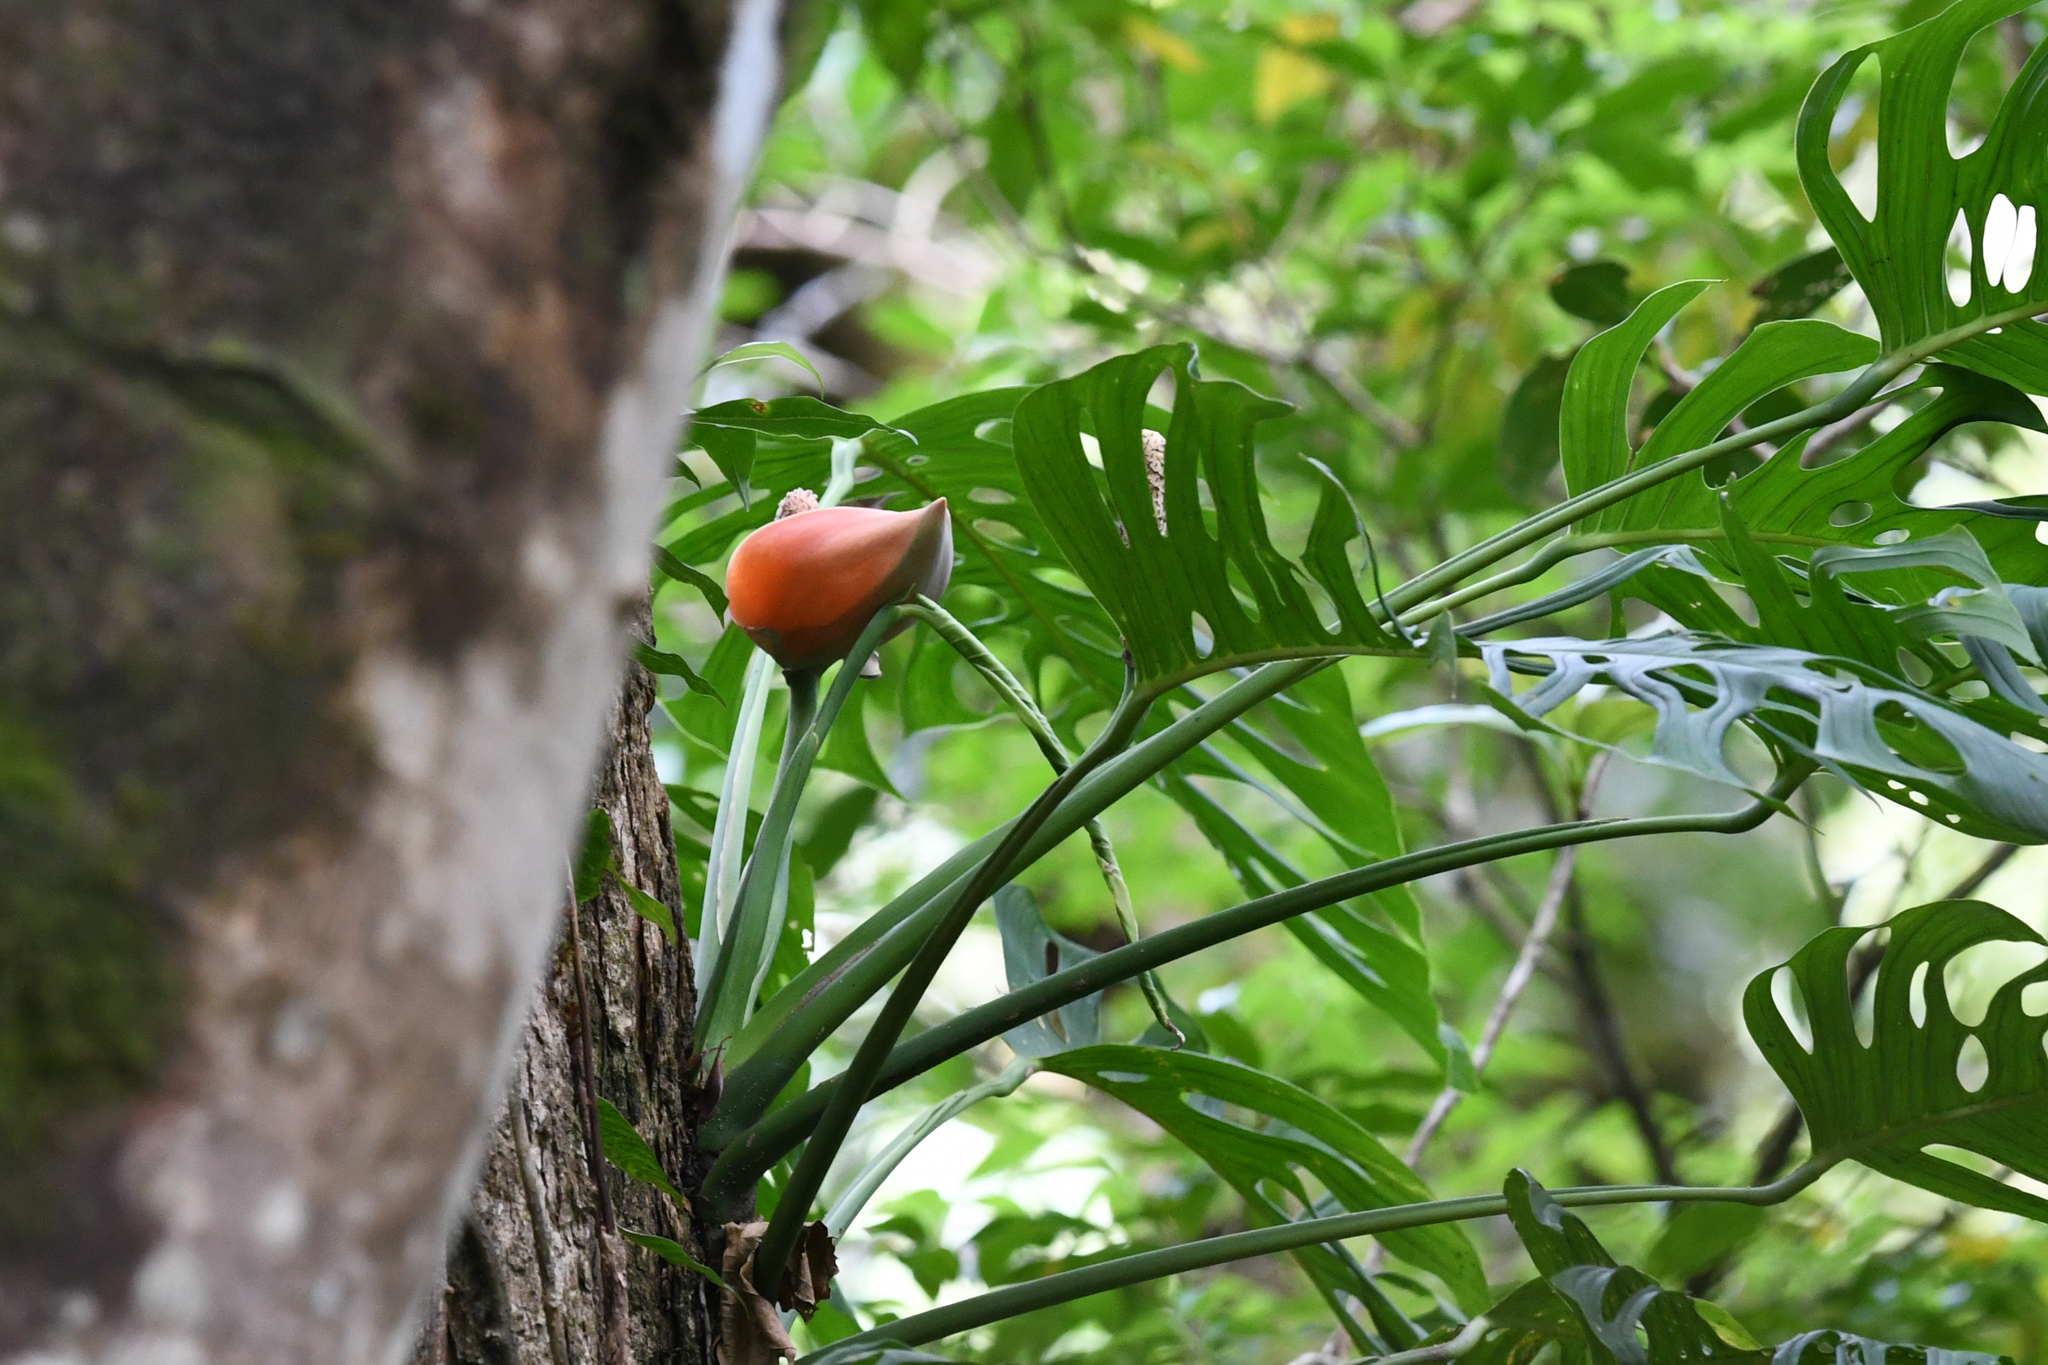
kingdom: Plantae
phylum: Tracheophyta
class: Liliopsida
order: Alismatales
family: Araceae
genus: Monstera
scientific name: Monstera oreophila
